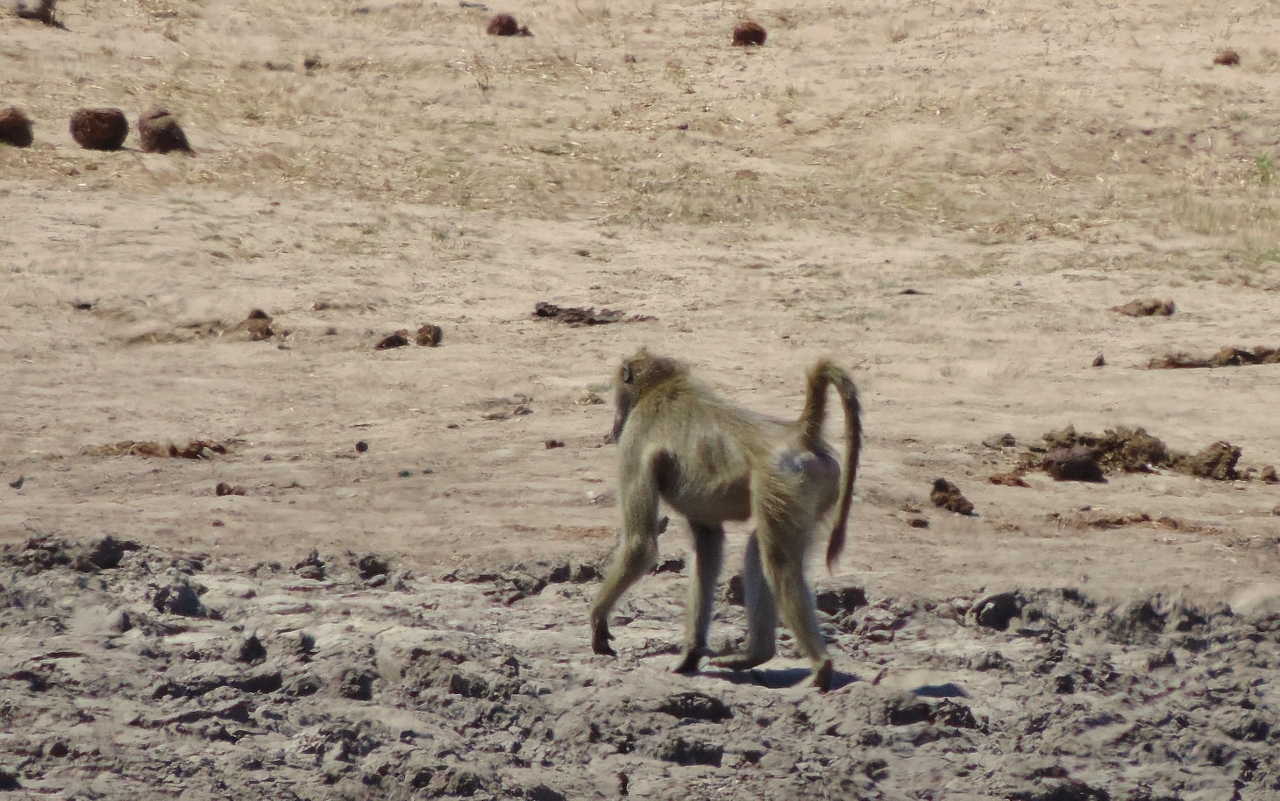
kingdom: Animalia
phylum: Chordata
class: Mammalia
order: Primates
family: Cercopithecidae
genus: Papio
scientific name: Papio ursinus
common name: Chacma baboon
